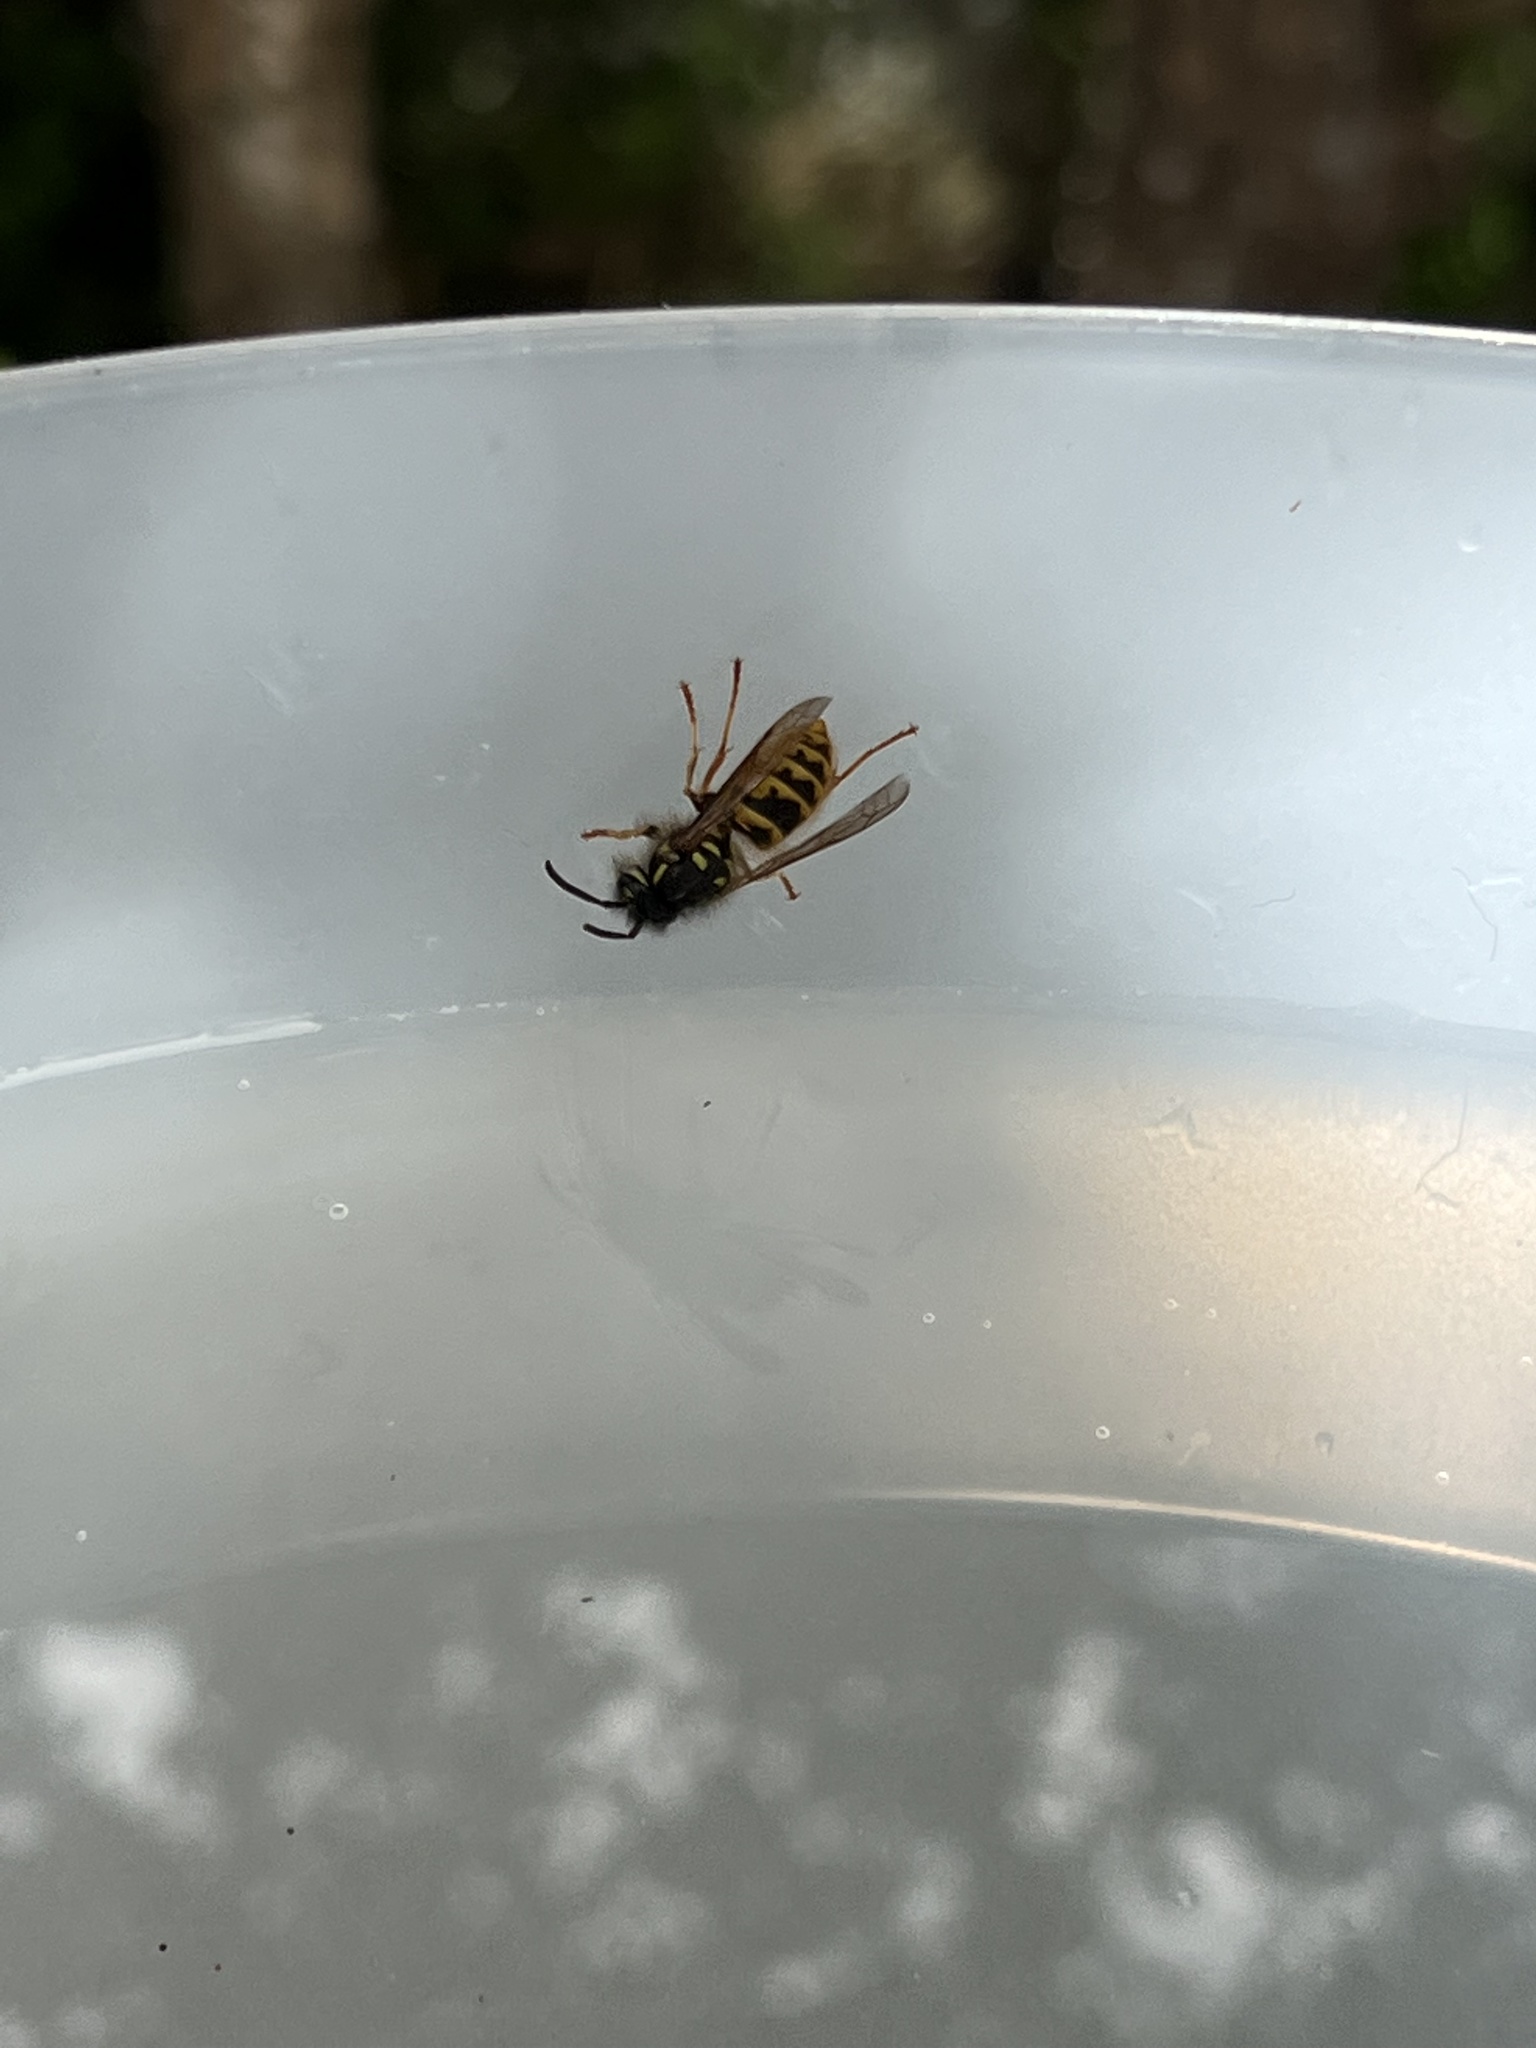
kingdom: Animalia
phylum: Arthropoda
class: Insecta
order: Hymenoptera
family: Vespidae
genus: Vespula
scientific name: Vespula vulgaris
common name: Common wasp
